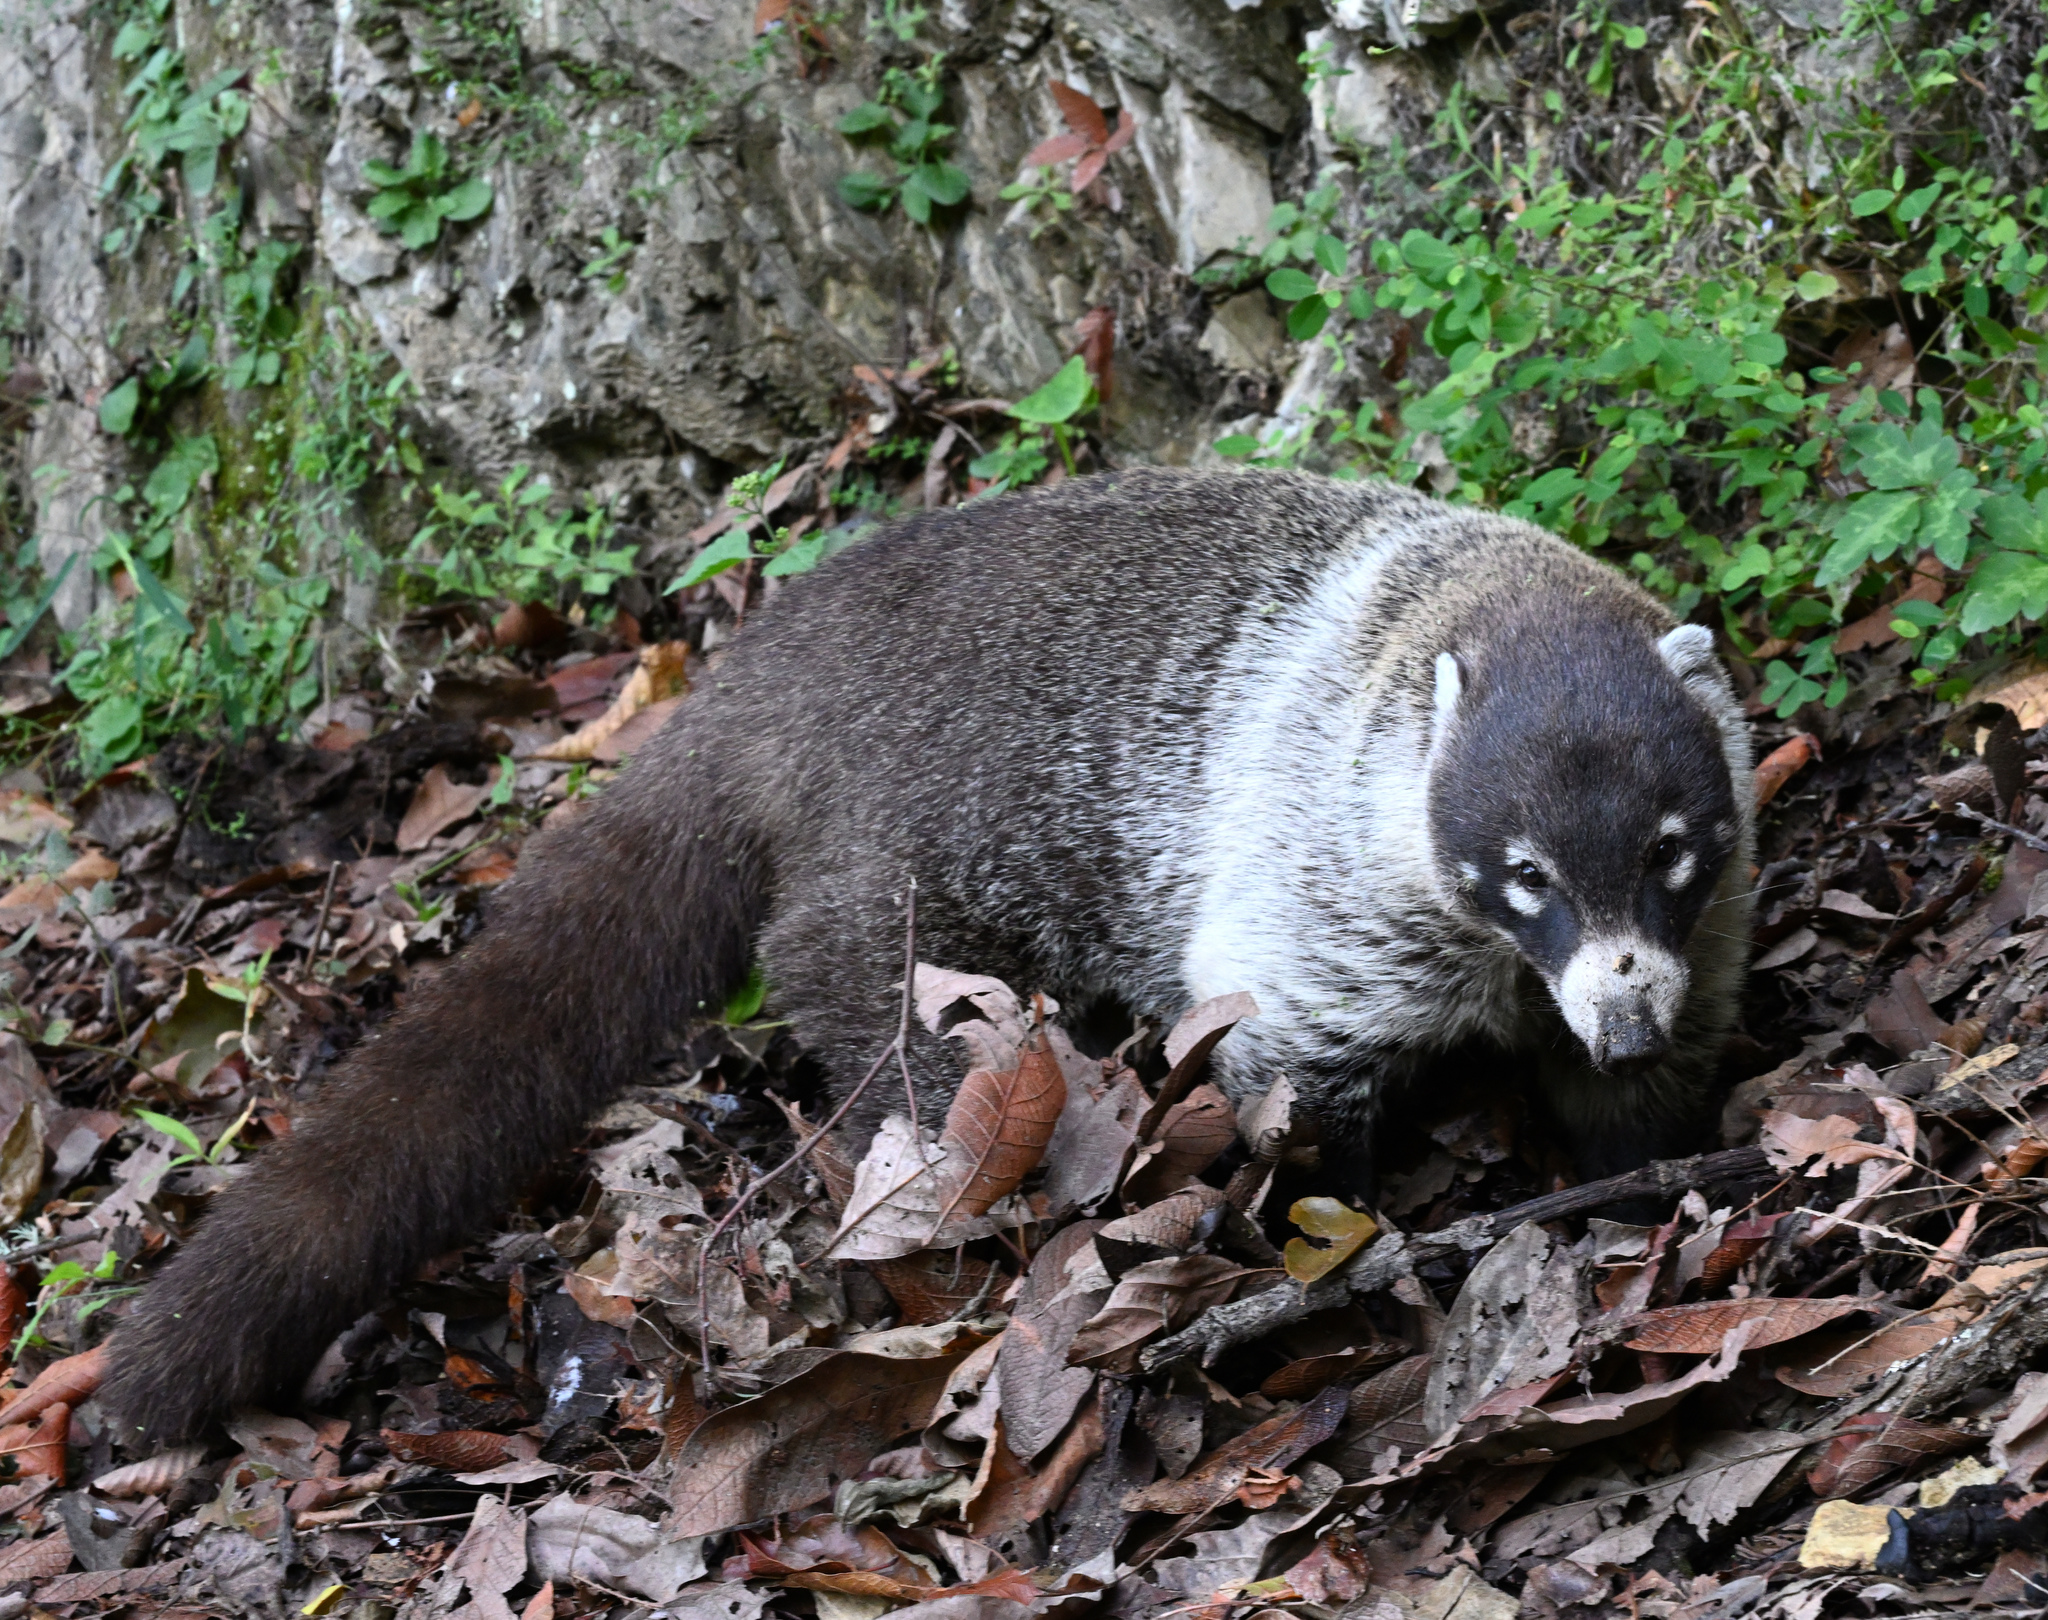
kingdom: Animalia
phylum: Chordata
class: Mammalia
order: Carnivora
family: Procyonidae
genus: Nasua
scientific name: Nasua narica
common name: White-nosed coati
